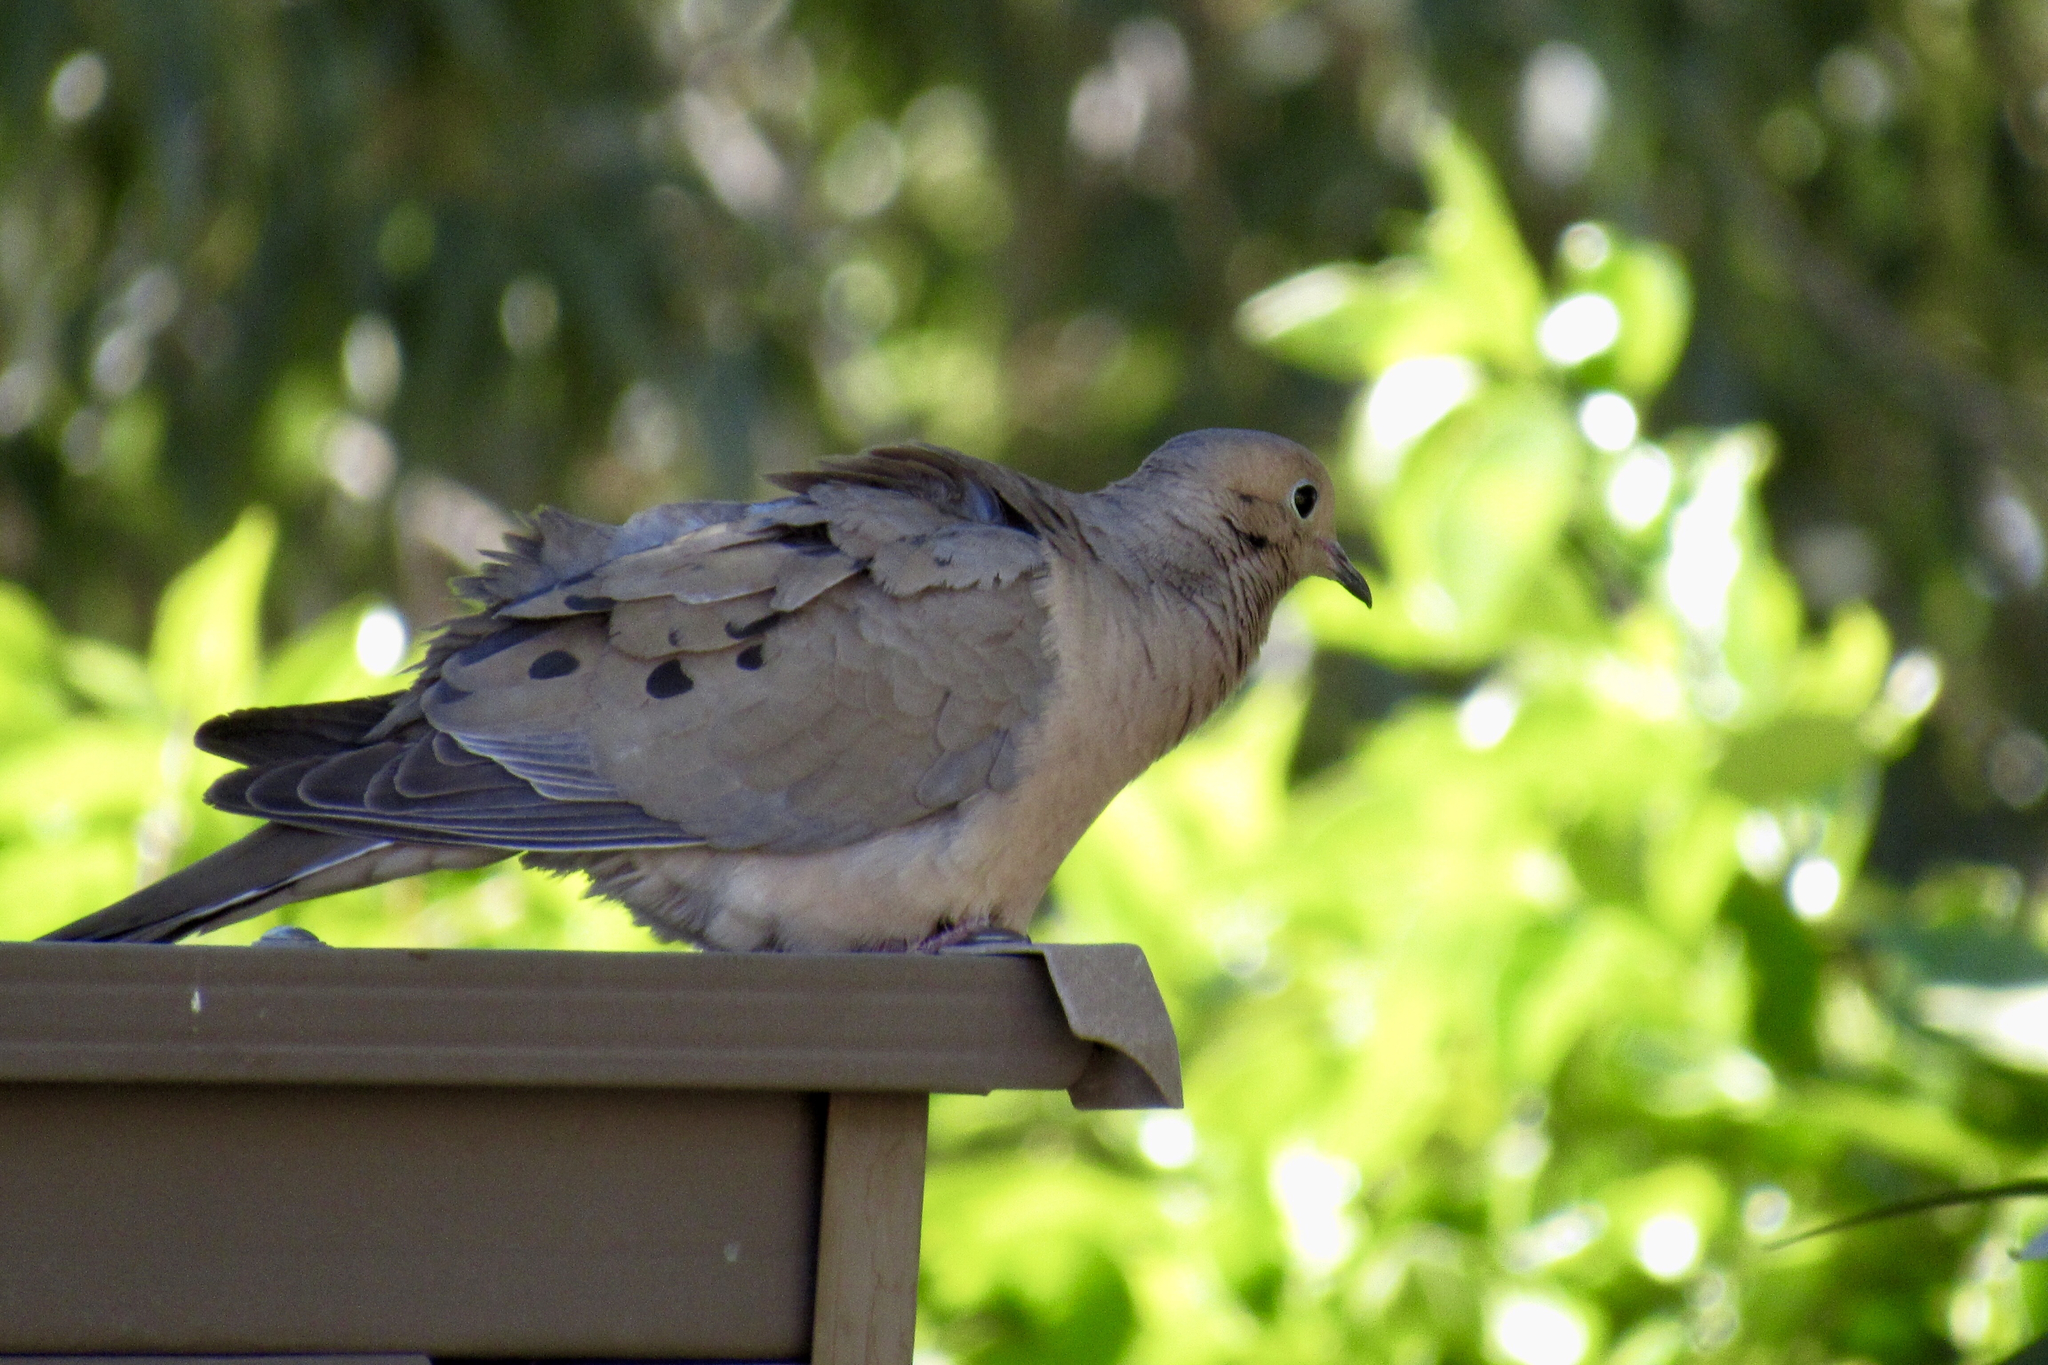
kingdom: Animalia
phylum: Chordata
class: Aves
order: Columbiformes
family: Columbidae
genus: Zenaida
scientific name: Zenaida macroura
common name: Mourning dove
